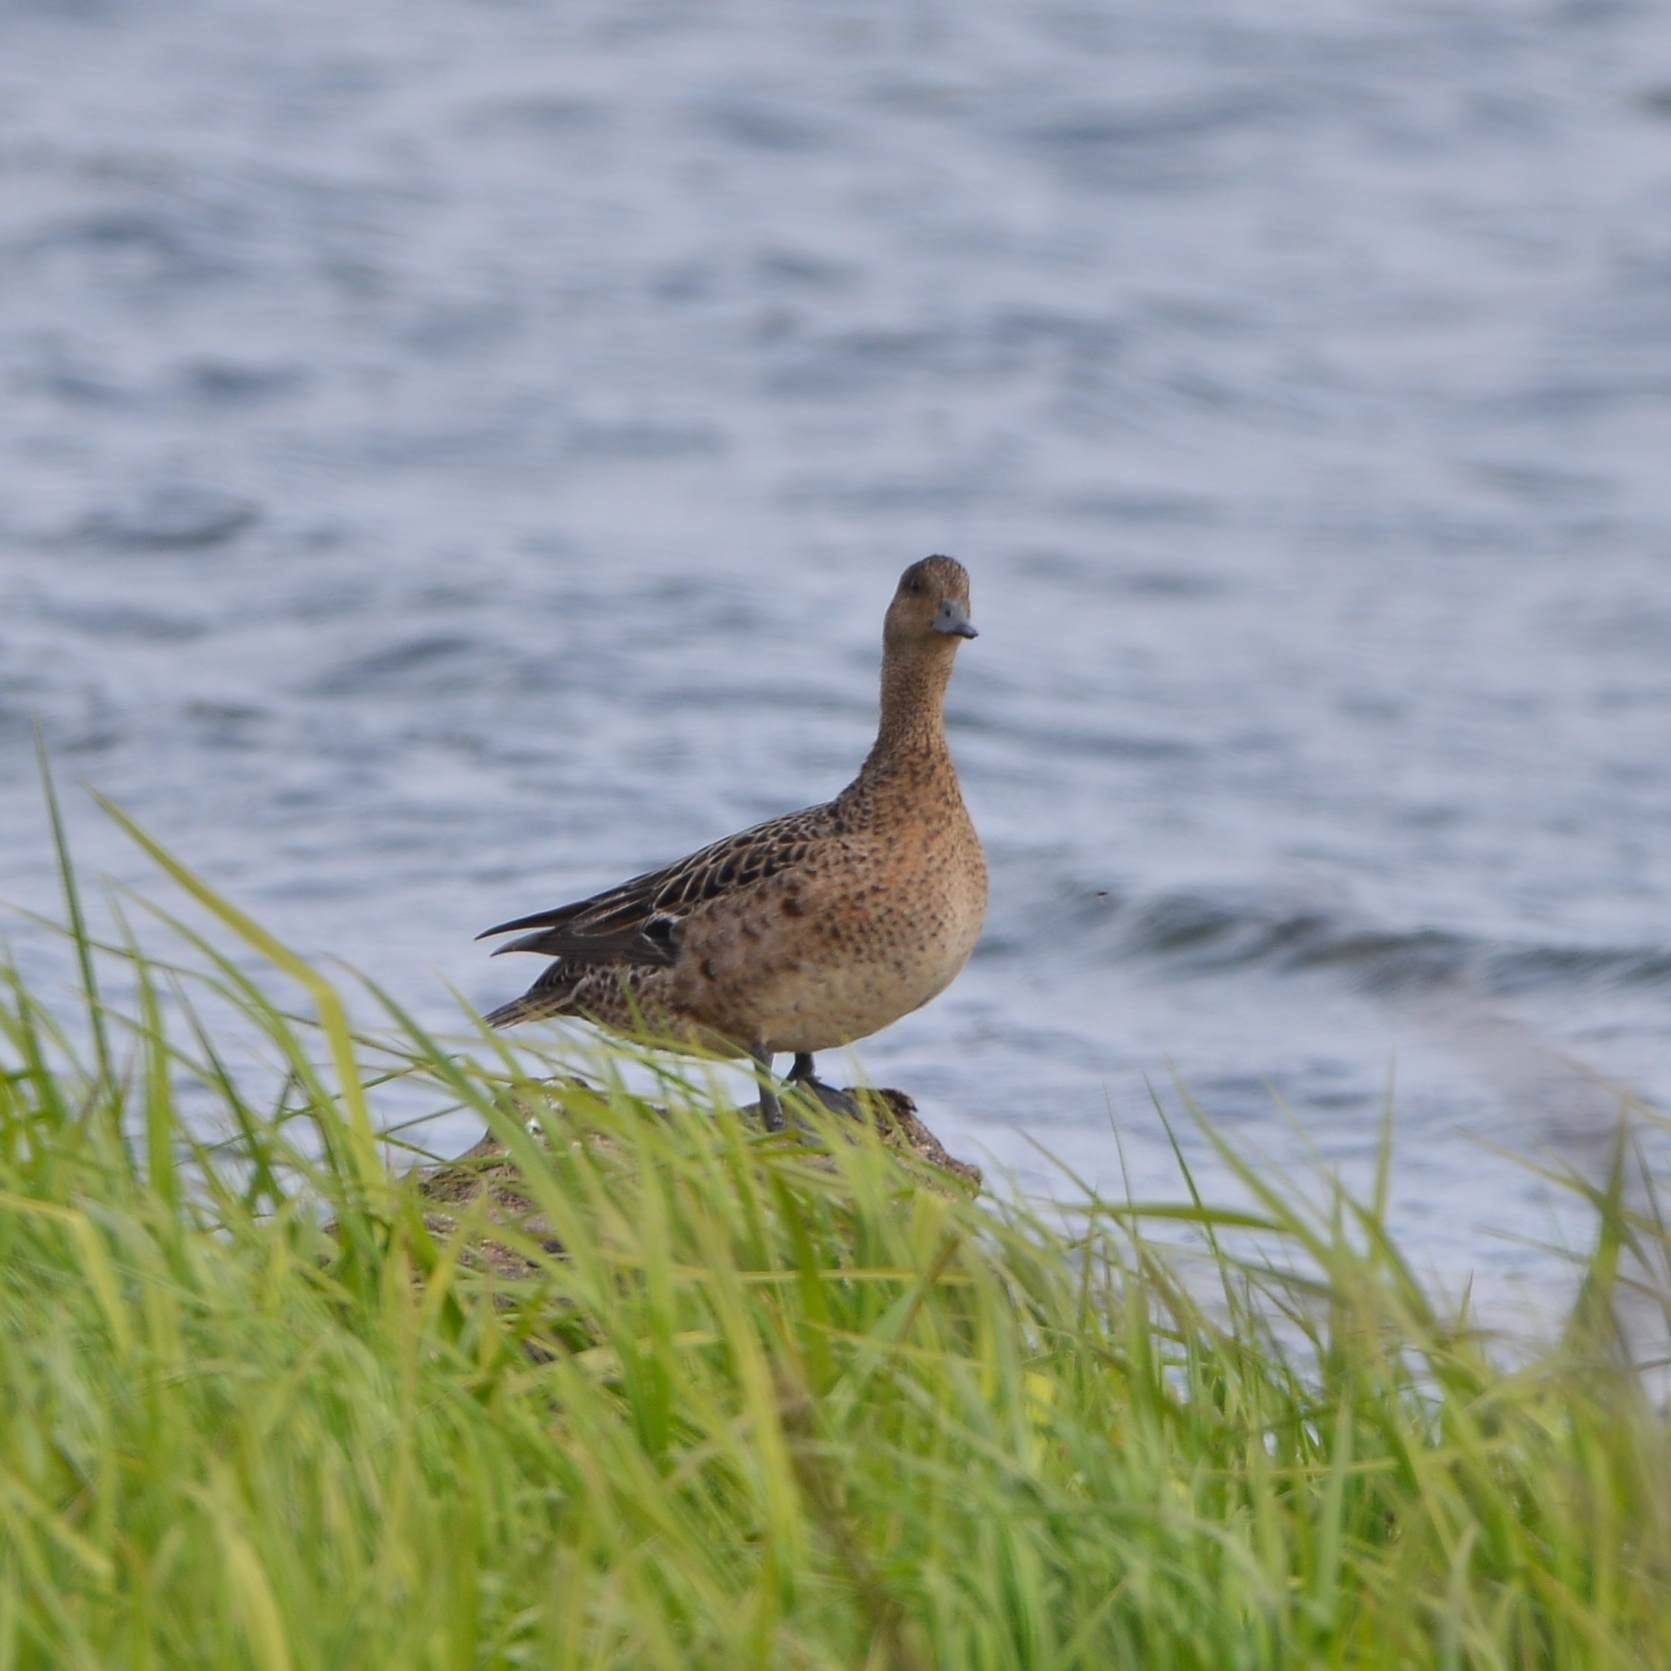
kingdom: Animalia
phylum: Chordata
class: Aves
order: Anseriformes
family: Anatidae
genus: Mareca
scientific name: Mareca penelope
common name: Eurasian wigeon
